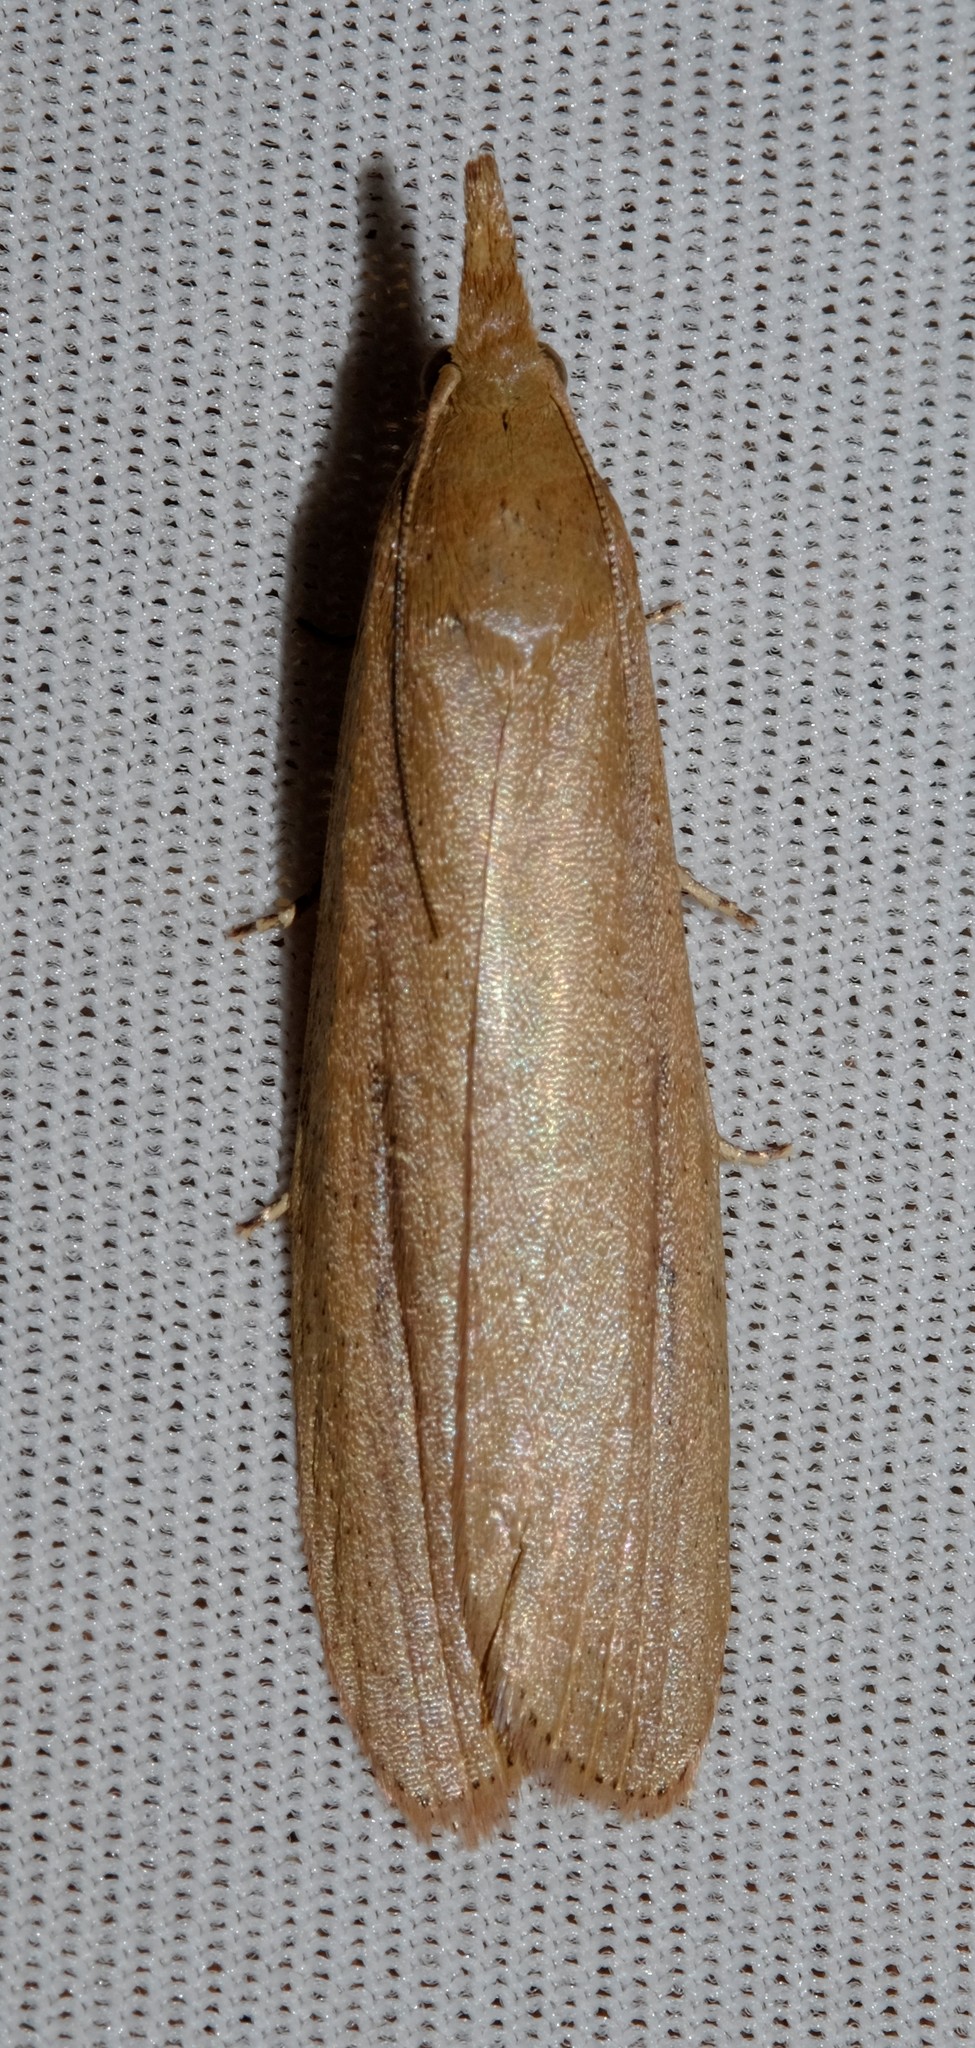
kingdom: Animalia
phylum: Arthropoda
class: Insecta
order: Lepidoptera
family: Pyralidae
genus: Meyriccia
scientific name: Meyriccia latro
